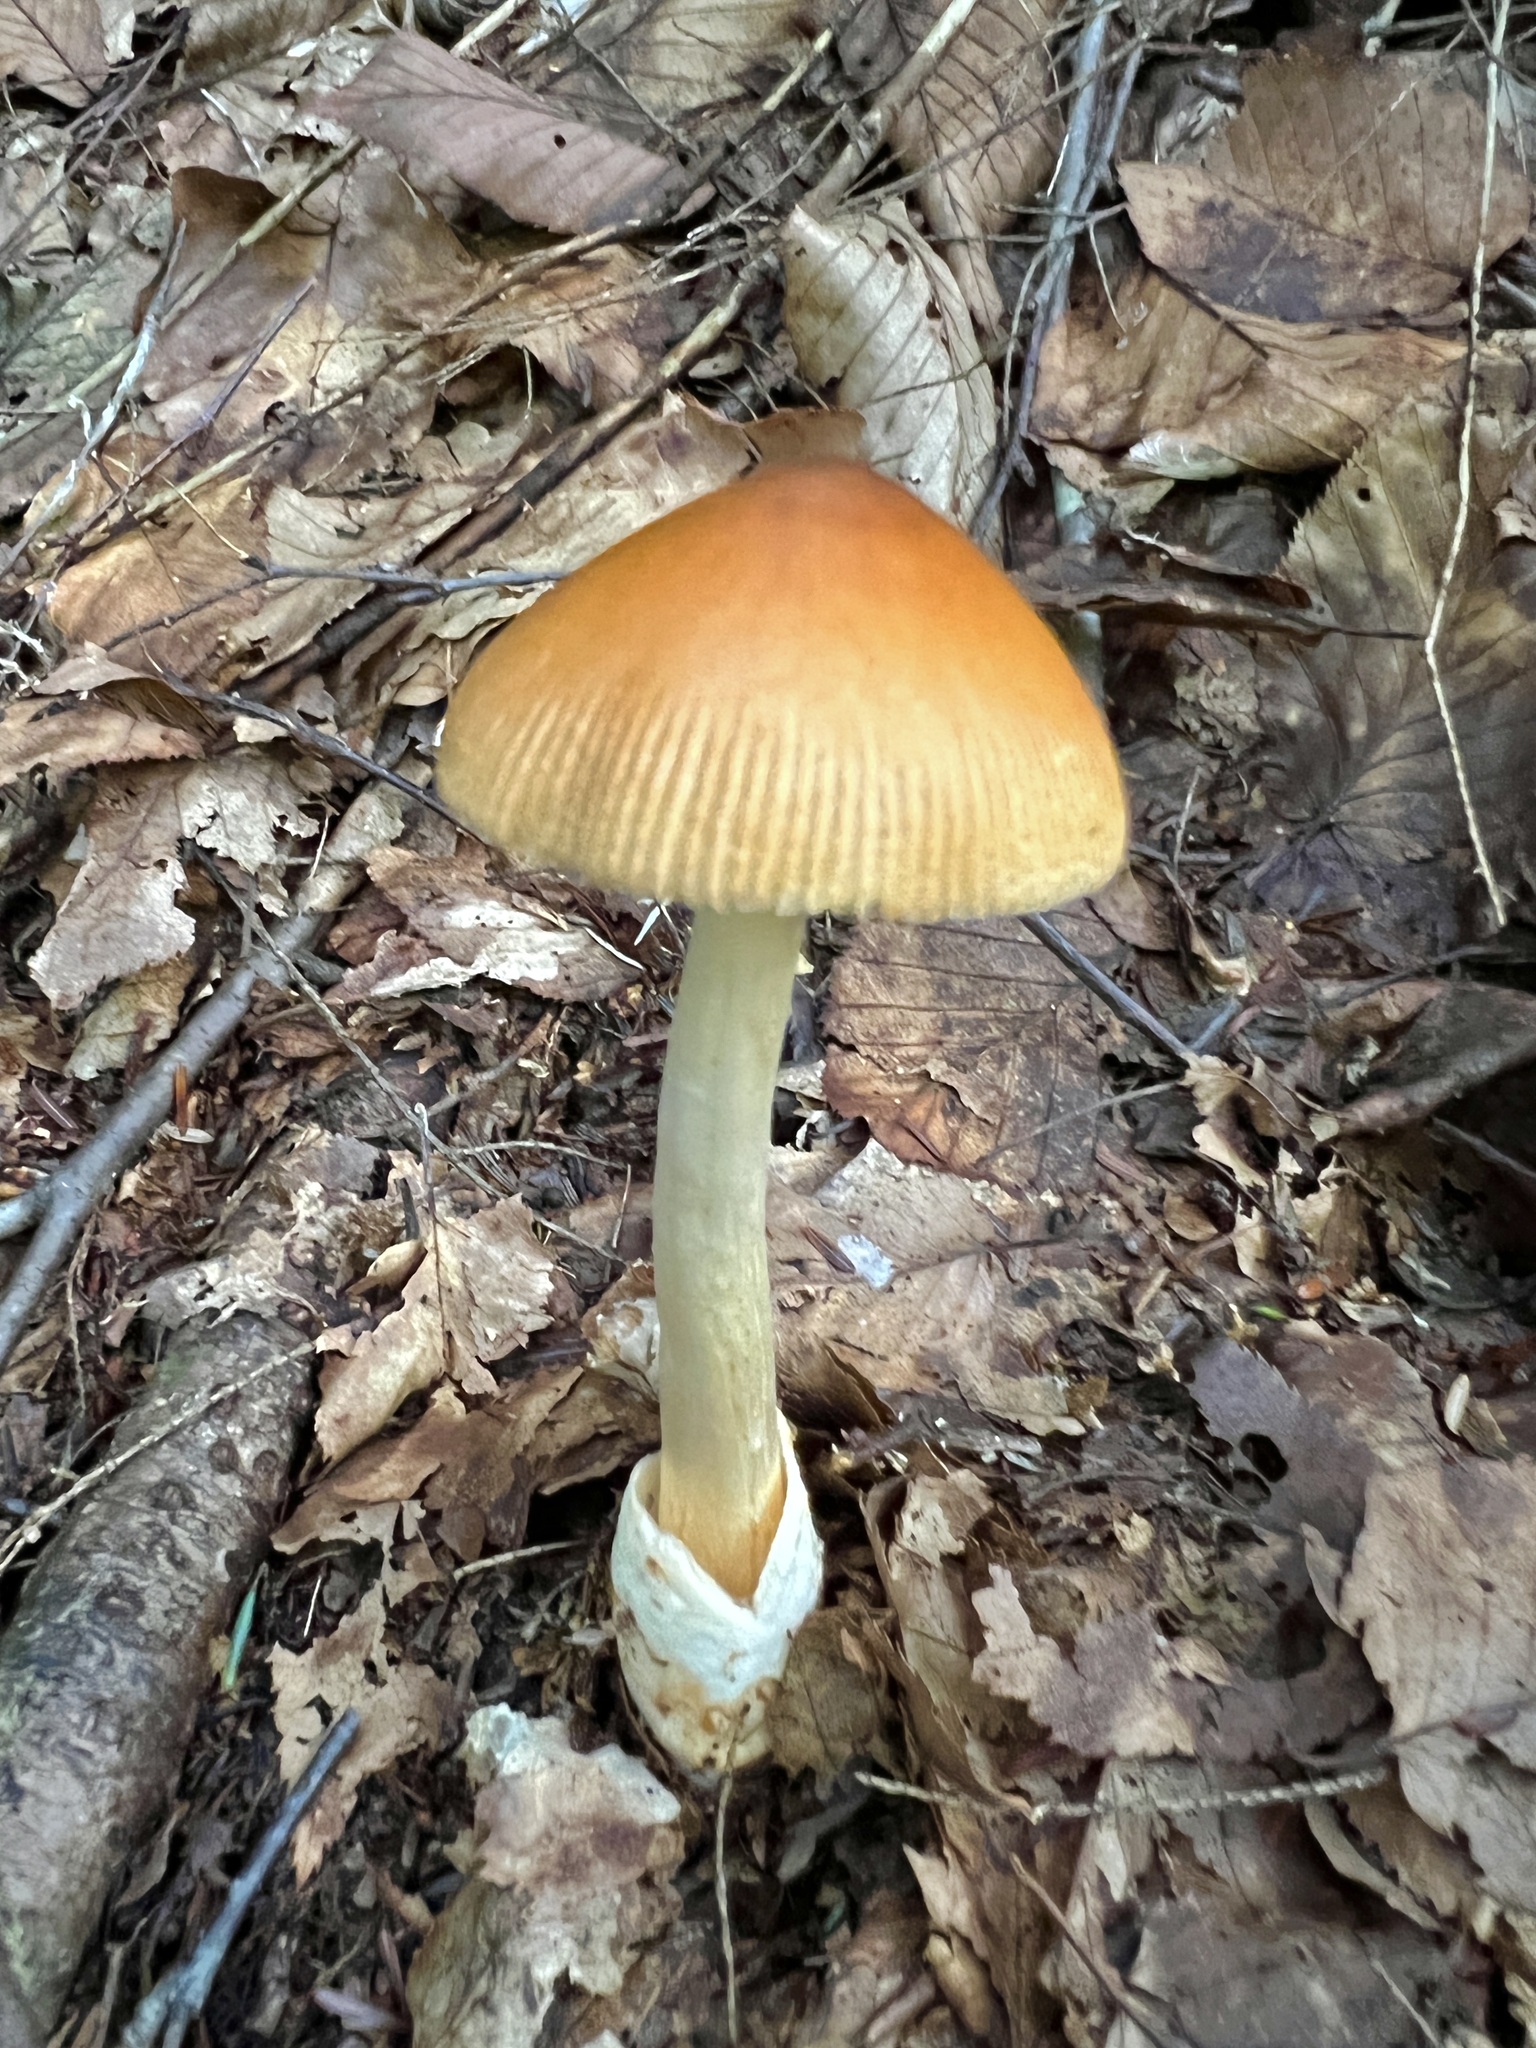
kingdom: Fungi
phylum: Basidiomycota
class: Agaricomycetes
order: Agaricales
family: Amanitaceae
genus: Amanita
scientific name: Amanita fulva
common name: Tawny grisette
